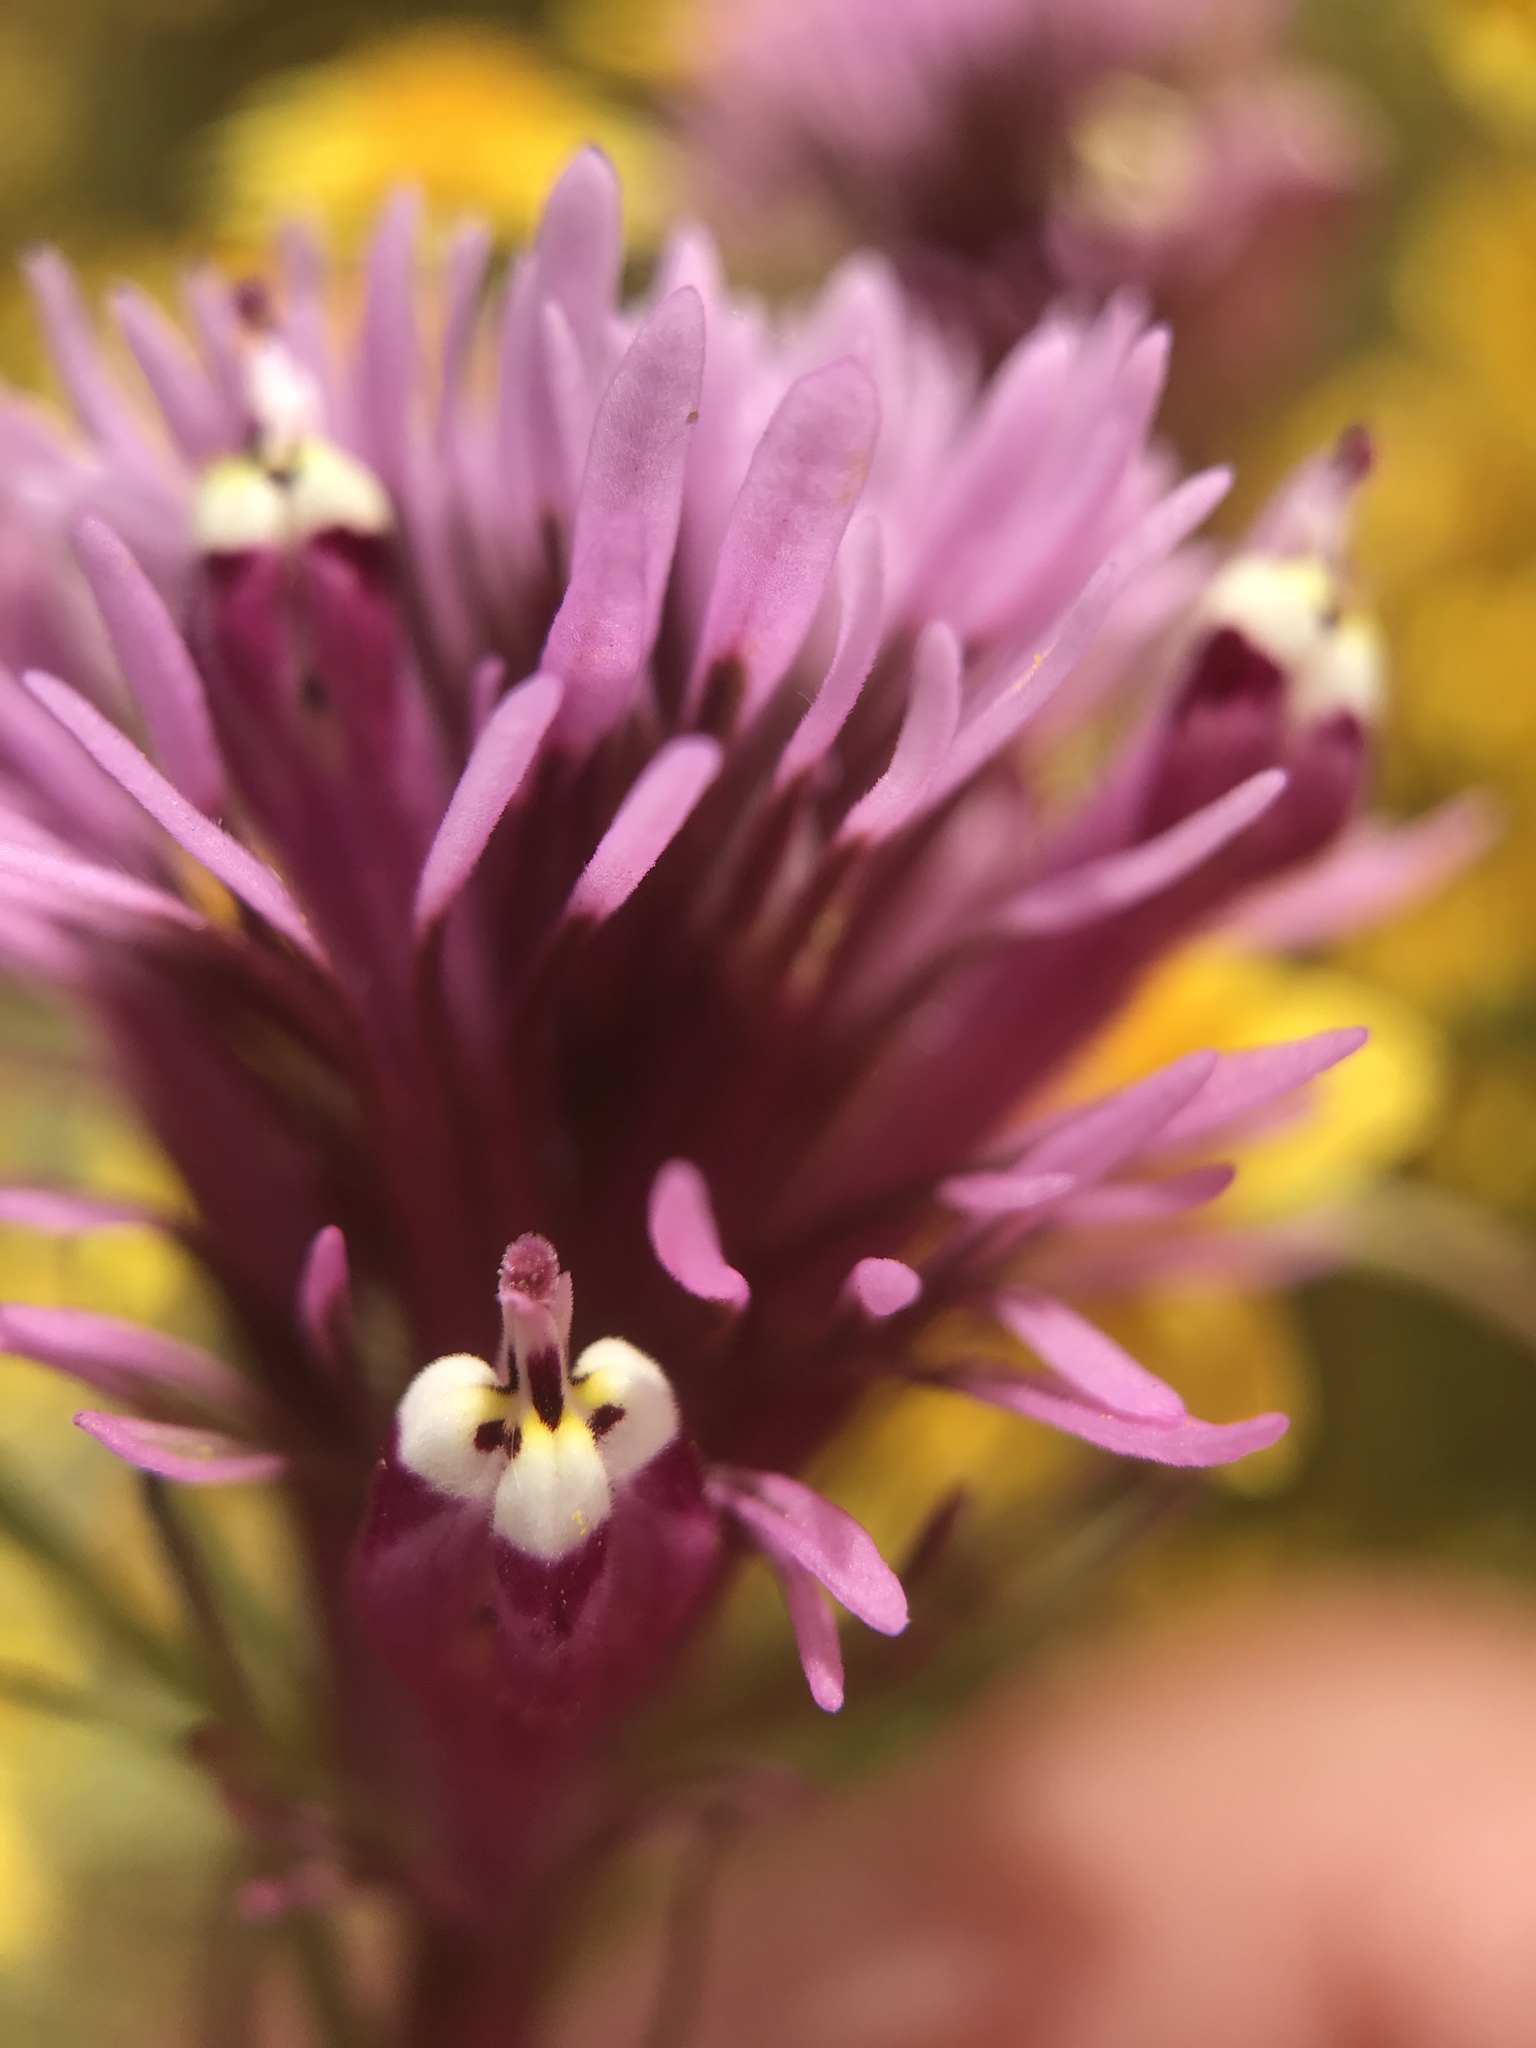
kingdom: Plantae
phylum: Tracheophyta
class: Magnoliopsida
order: Lamiales
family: Orobanchaceae
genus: Castilleja
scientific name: Castilleja densiflora
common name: Dense-flower indian paintbrush
